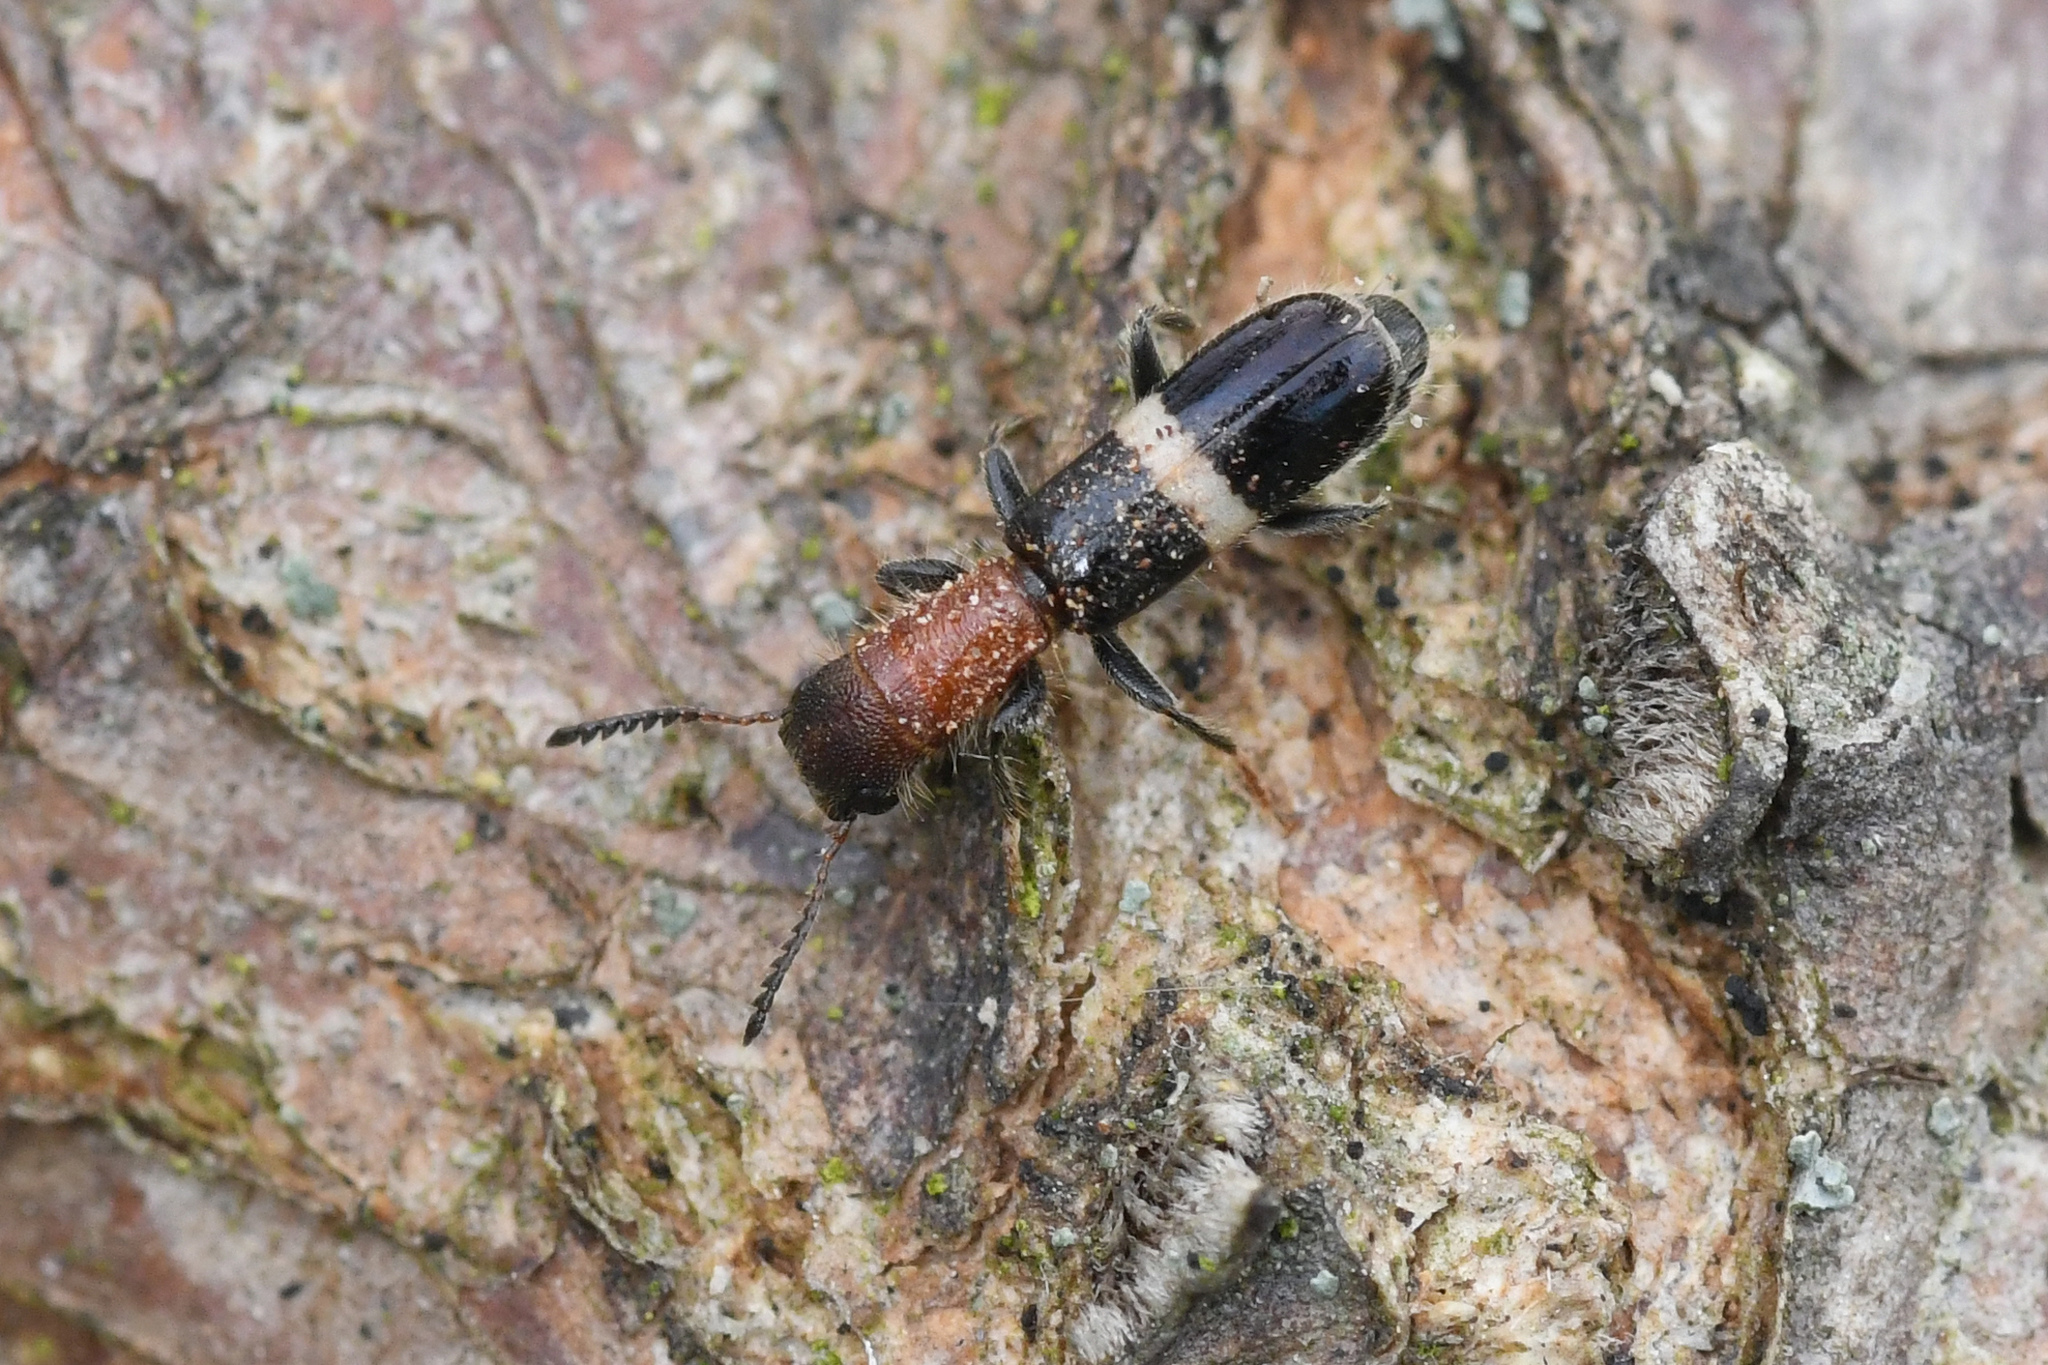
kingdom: Animalia
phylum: Arthropoda
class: Insecta
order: Coleoptera
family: Cleridae
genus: Denops
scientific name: Denops albofasciatus
